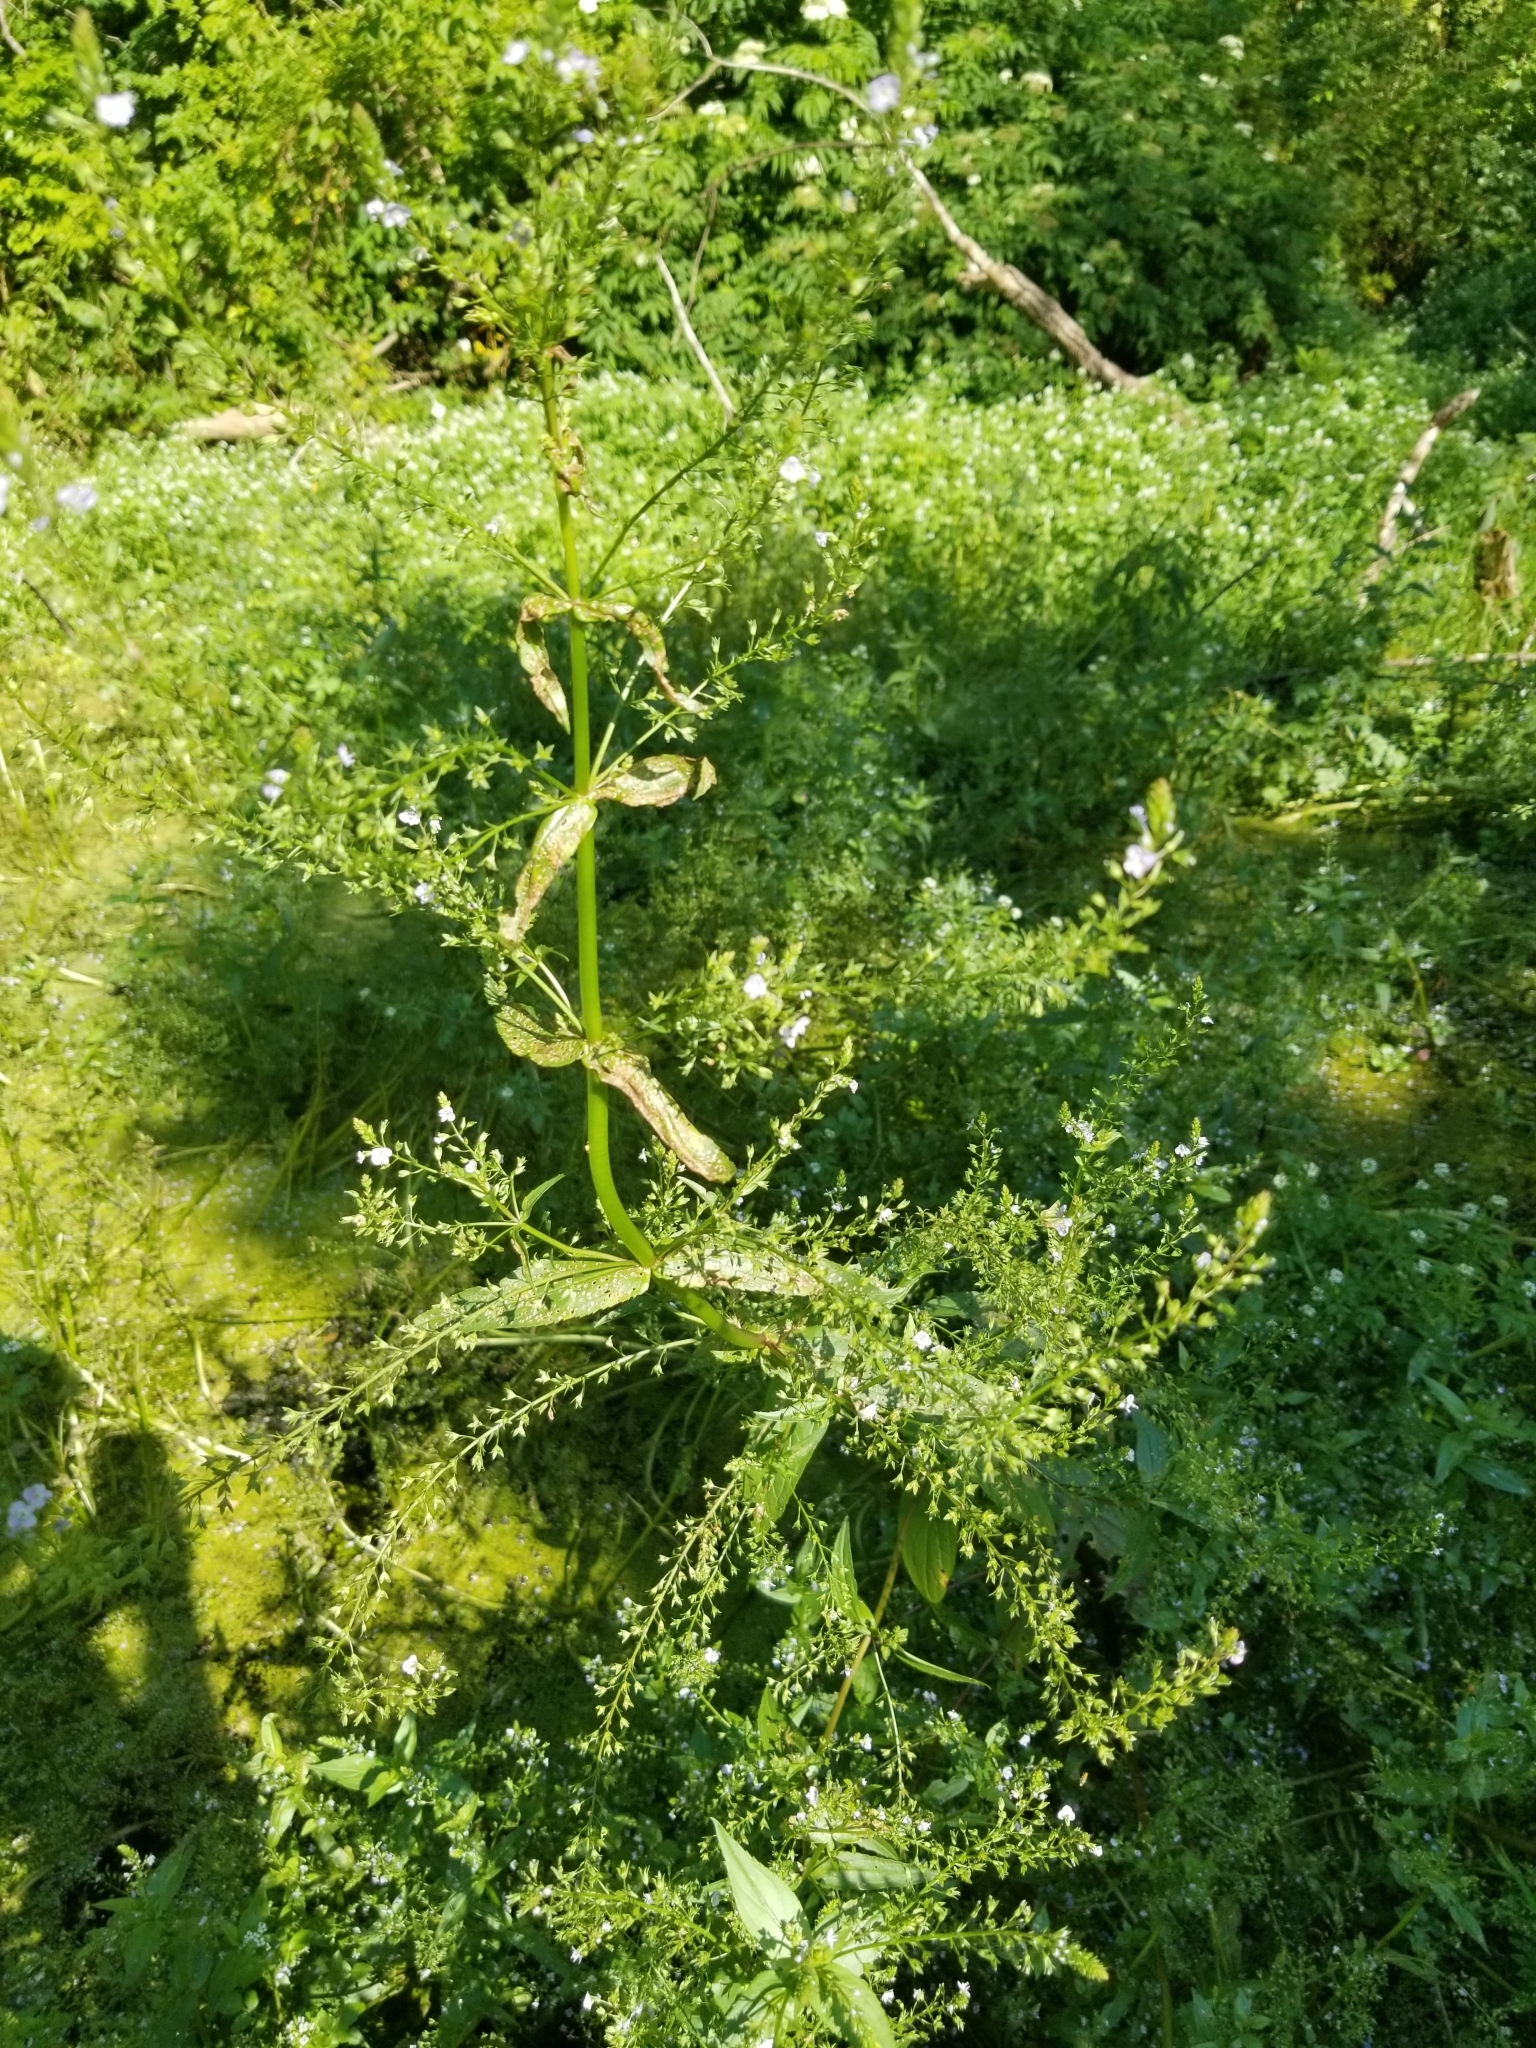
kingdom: Plantae
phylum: Tracheophyta
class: Magnoliopsida
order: Lamiales
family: Plantaginaceae
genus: Veronica
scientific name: Veronica anagallis-aquatica
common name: Water speedwell
